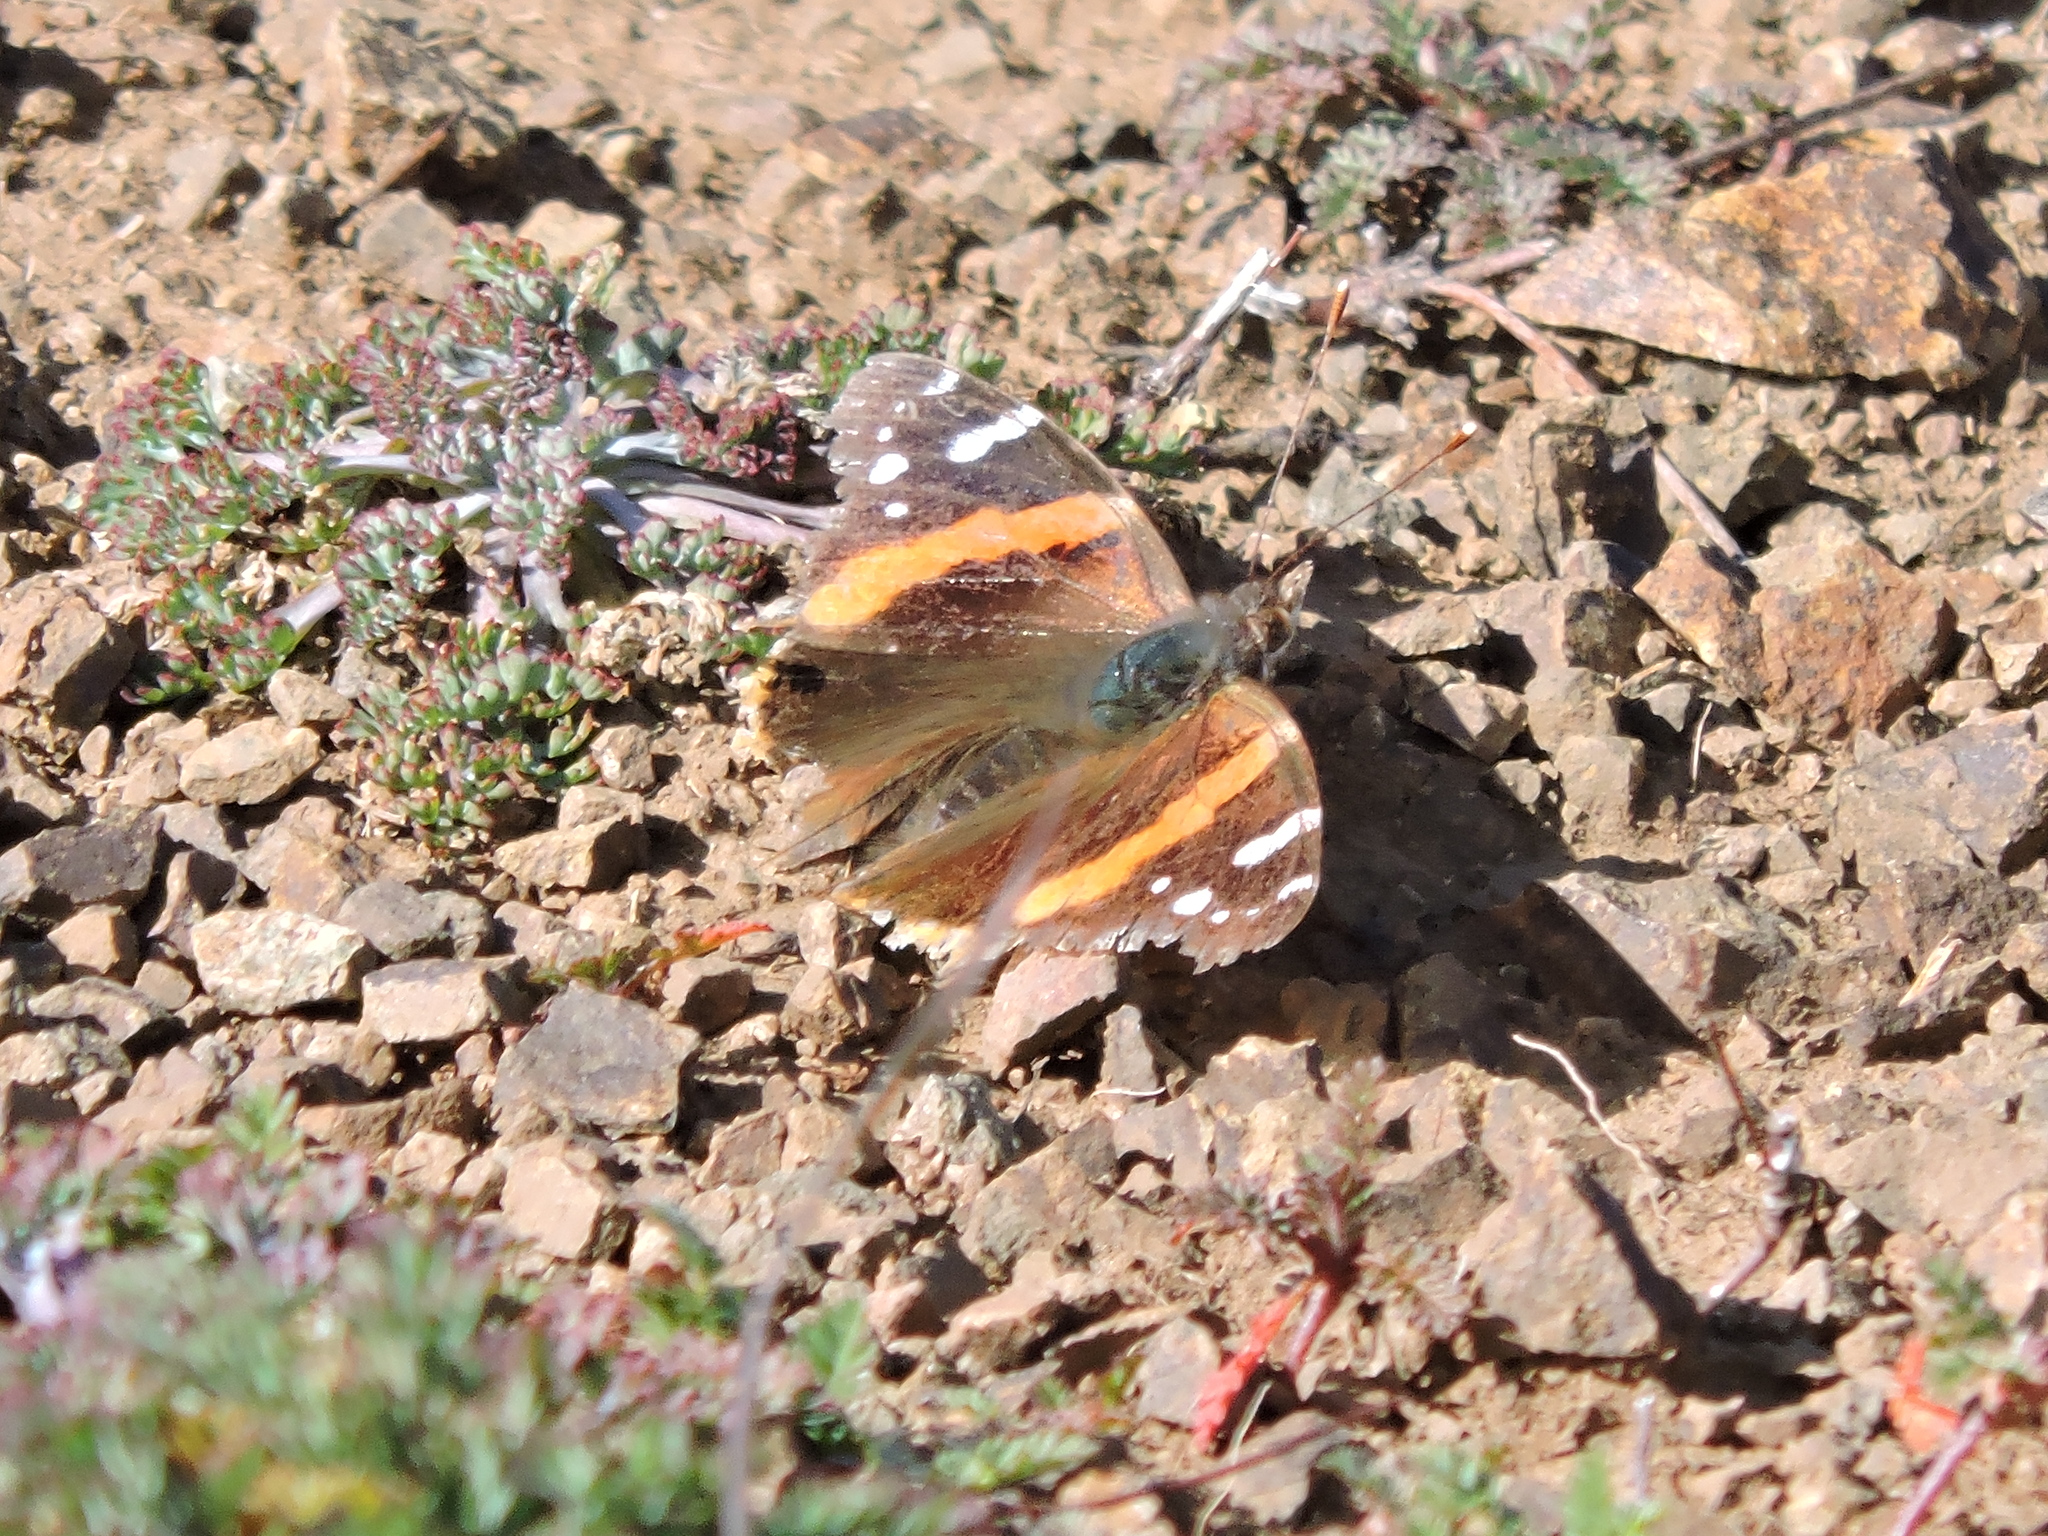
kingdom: Animalia
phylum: Arthropoda
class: Insecta
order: Lepidoptera
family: Nymphalidae
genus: Vanessa
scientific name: Vanessa atalanta
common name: Red admiral
